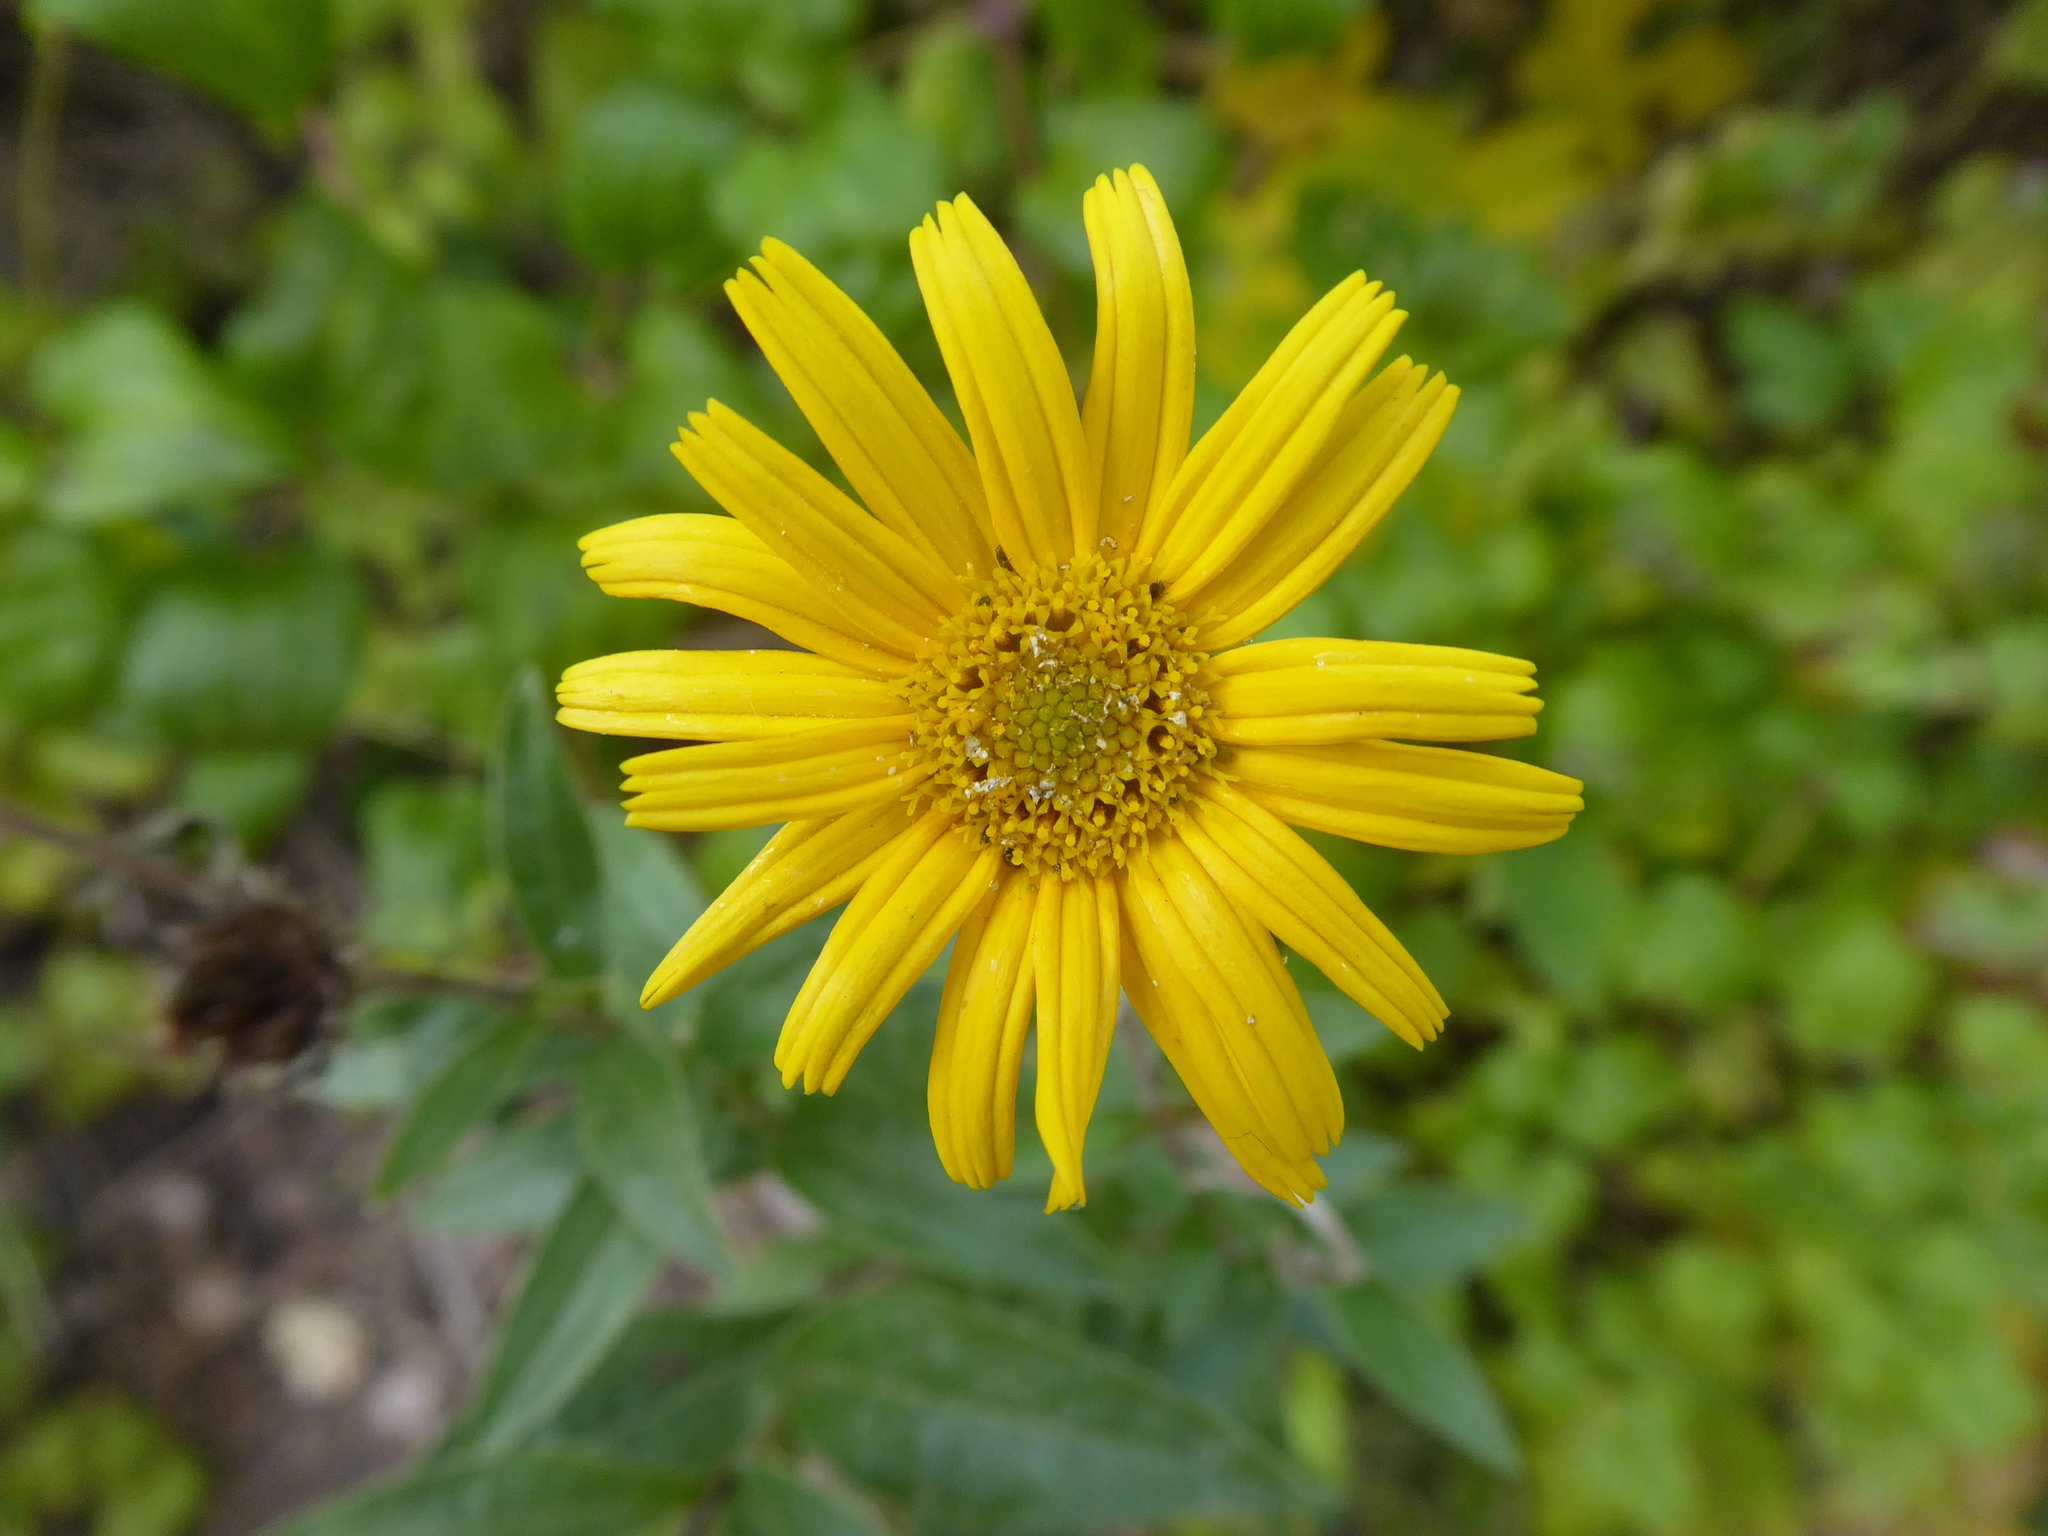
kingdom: Plantae
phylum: Tracheophyta
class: Magnoliopsida
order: Asterales
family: Asteraceae
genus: Buphthalmum
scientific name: Buphthalmum salicifolium
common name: Willow-leaved yellow-oxeye
